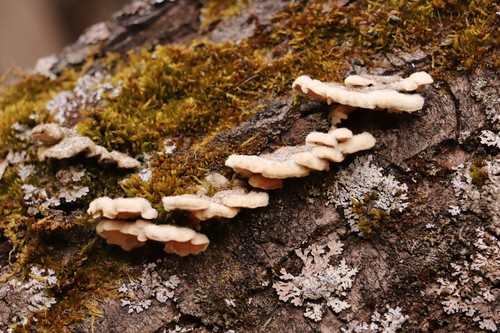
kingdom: Fungi
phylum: Basidiomycota
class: Agaricomycetes
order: Polyporales
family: Steccherinaceae
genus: Steccherinum
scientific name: Steccherinum ochraceum
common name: Ochre spreading tooth
